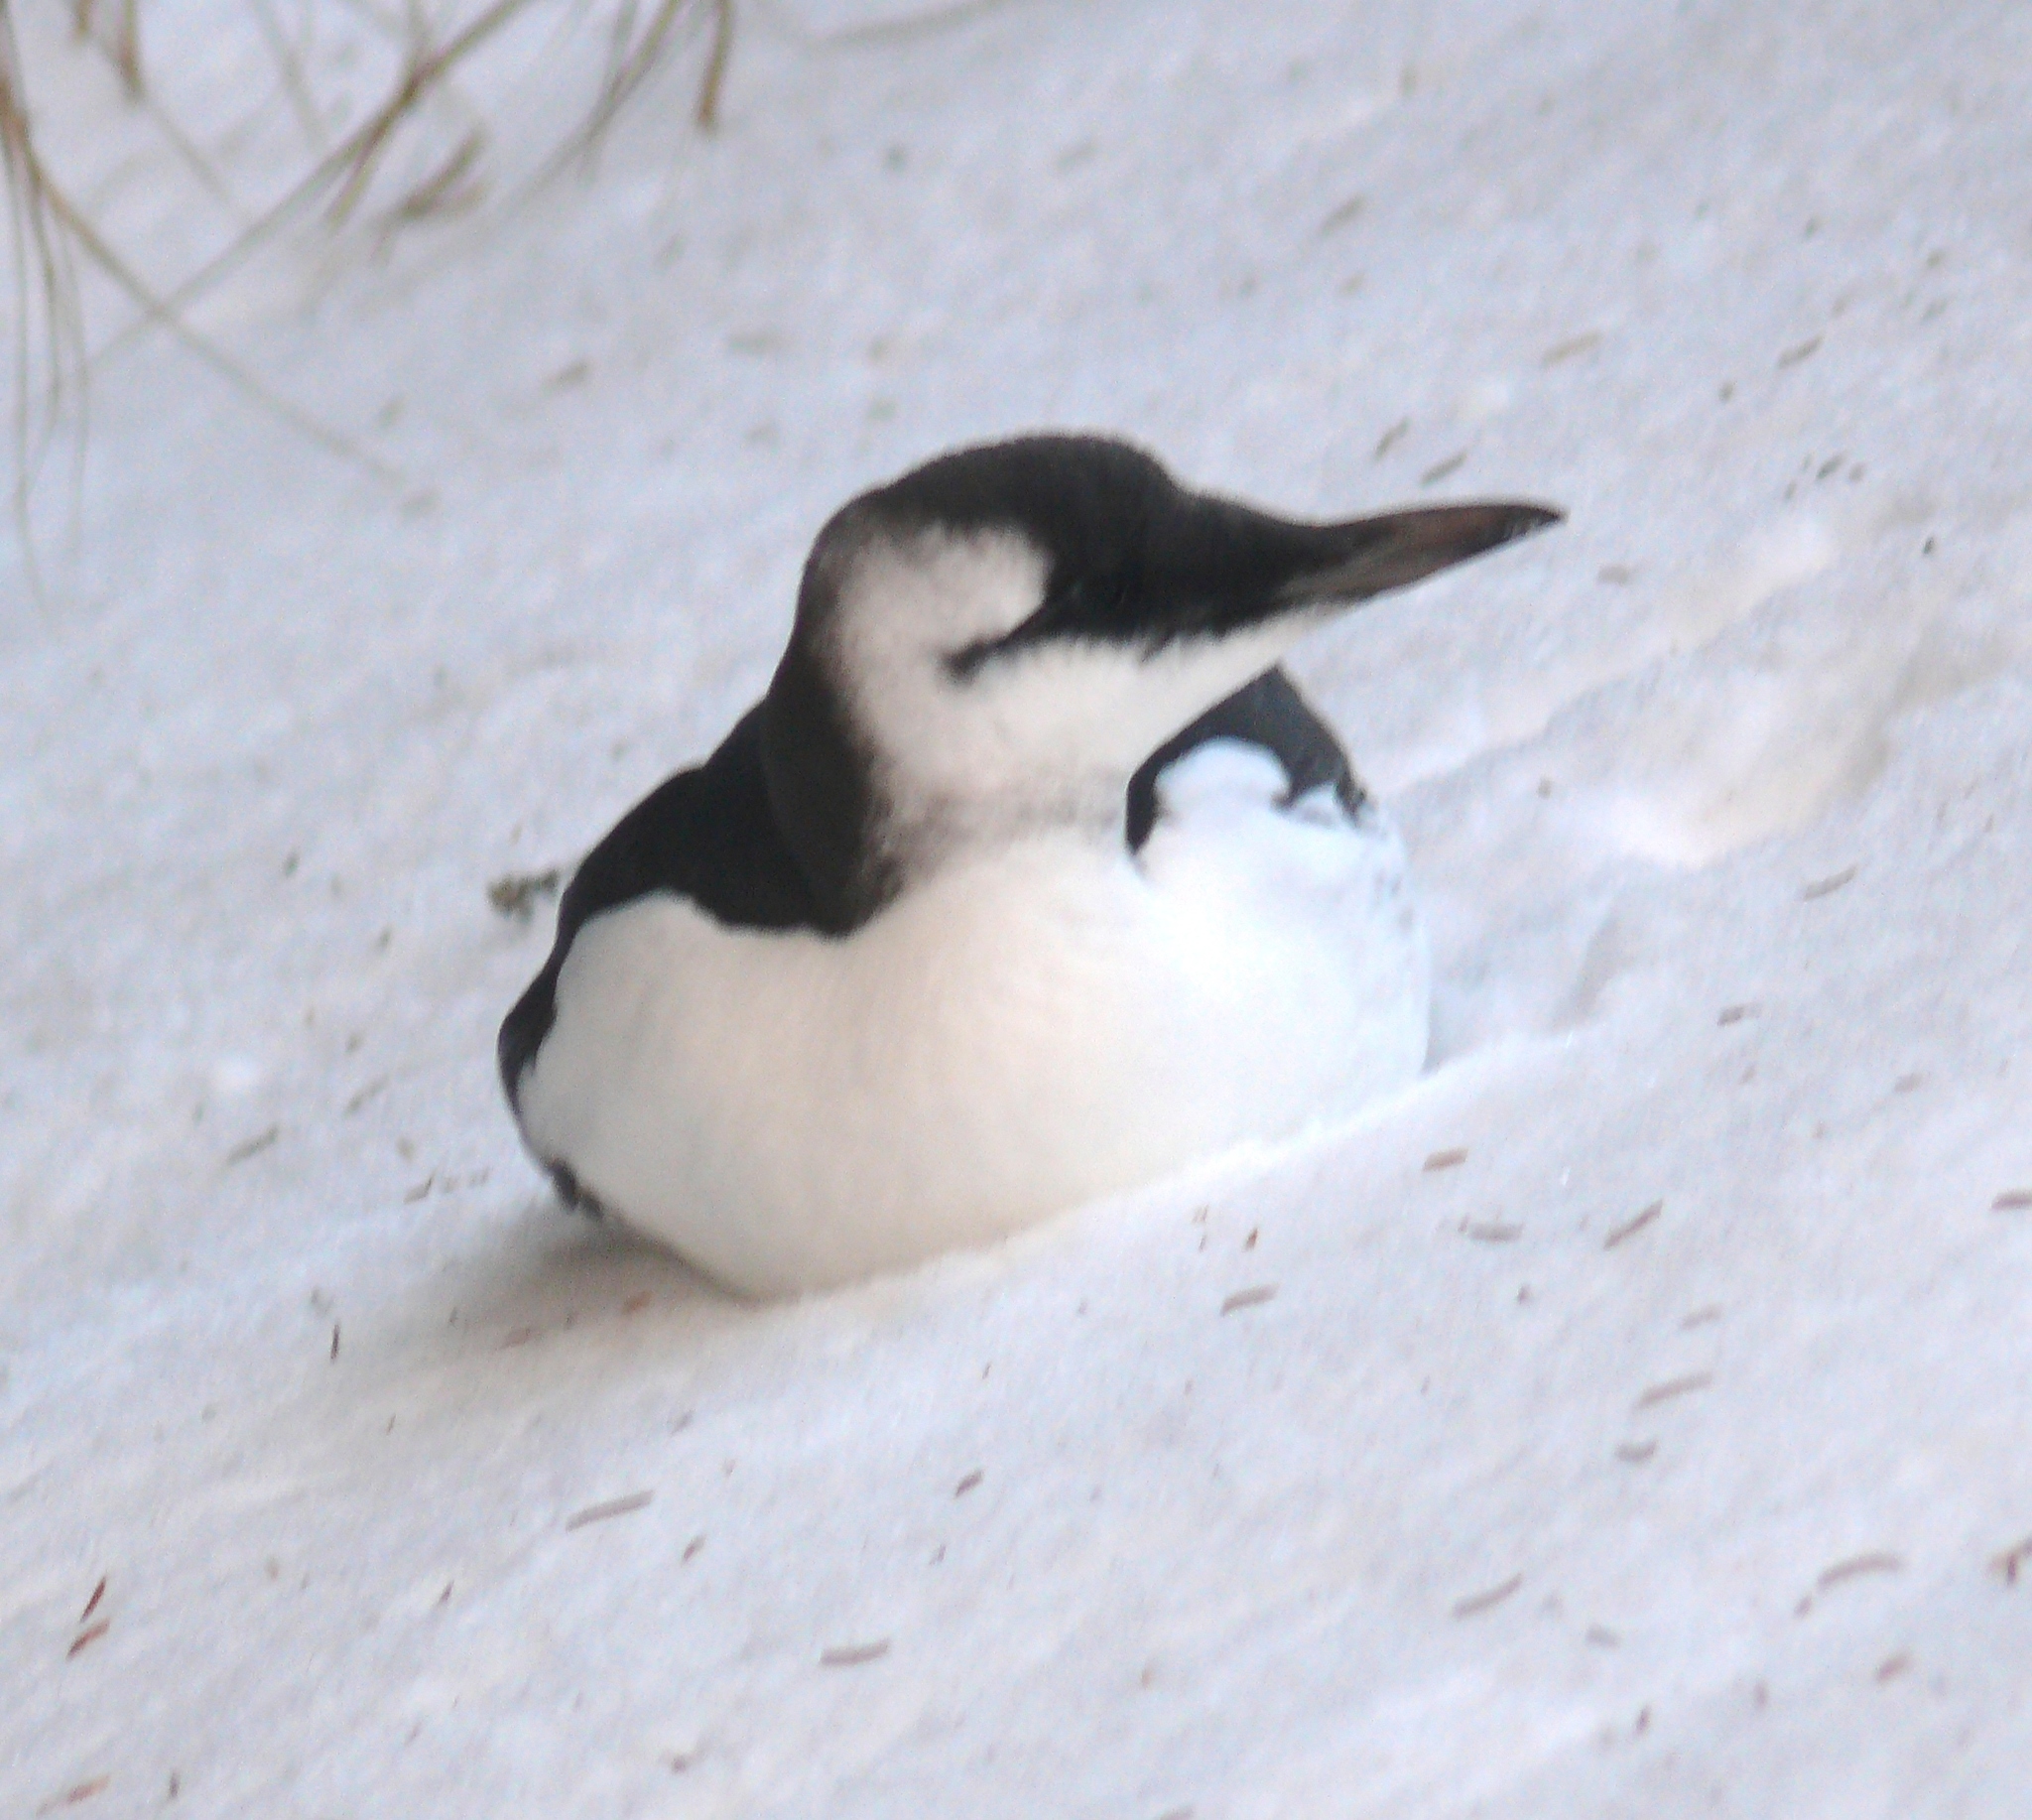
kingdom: Animalia
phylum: Chordata
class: Aves
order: Charadriiformes
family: Alcidae
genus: Uria
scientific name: Uria aalge
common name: Common murre
